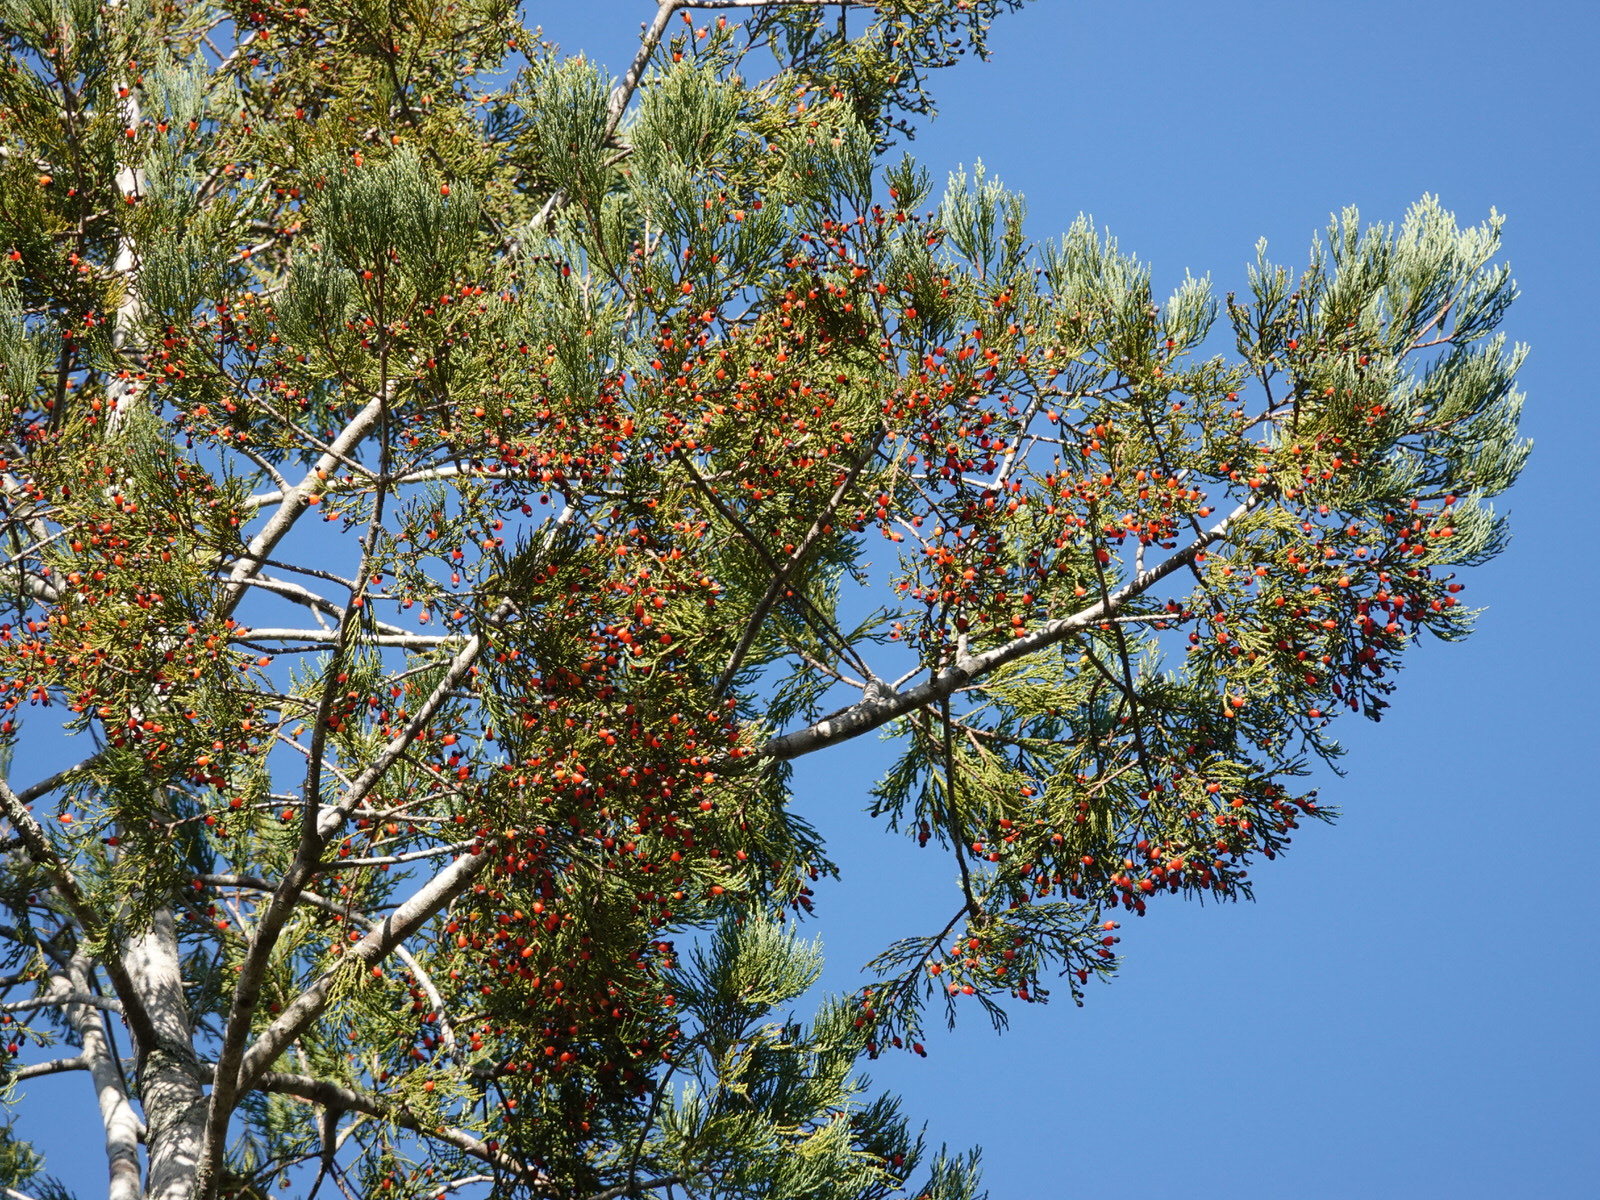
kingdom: Plantae
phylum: Tracheophyta
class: Pinopsida
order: Pinales
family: Podocarpaceae
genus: Dacrycarpus
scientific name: Dacrycarpus dacrydioides
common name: White pine
